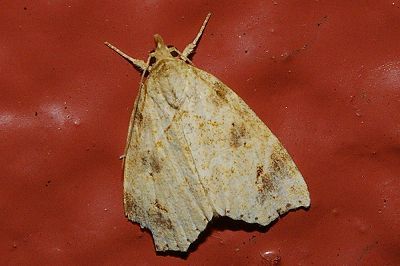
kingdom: Animalia
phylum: Arthropoda
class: Insecta
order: Lepidoptera
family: Erebidae
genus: Olulis
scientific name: Olulis
